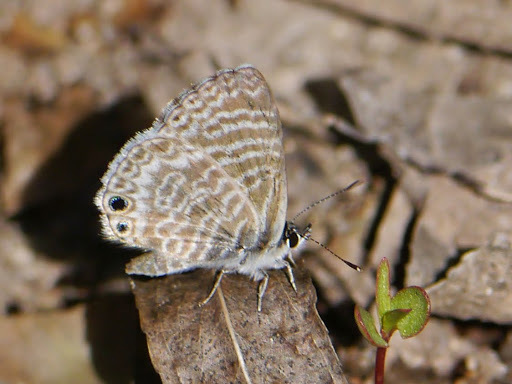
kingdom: Animalia
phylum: Arthropoda
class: Insecta
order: Lepidoptera
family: Lycaenidae
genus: Leptotes
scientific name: Leptotes marina
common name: Marine blue
